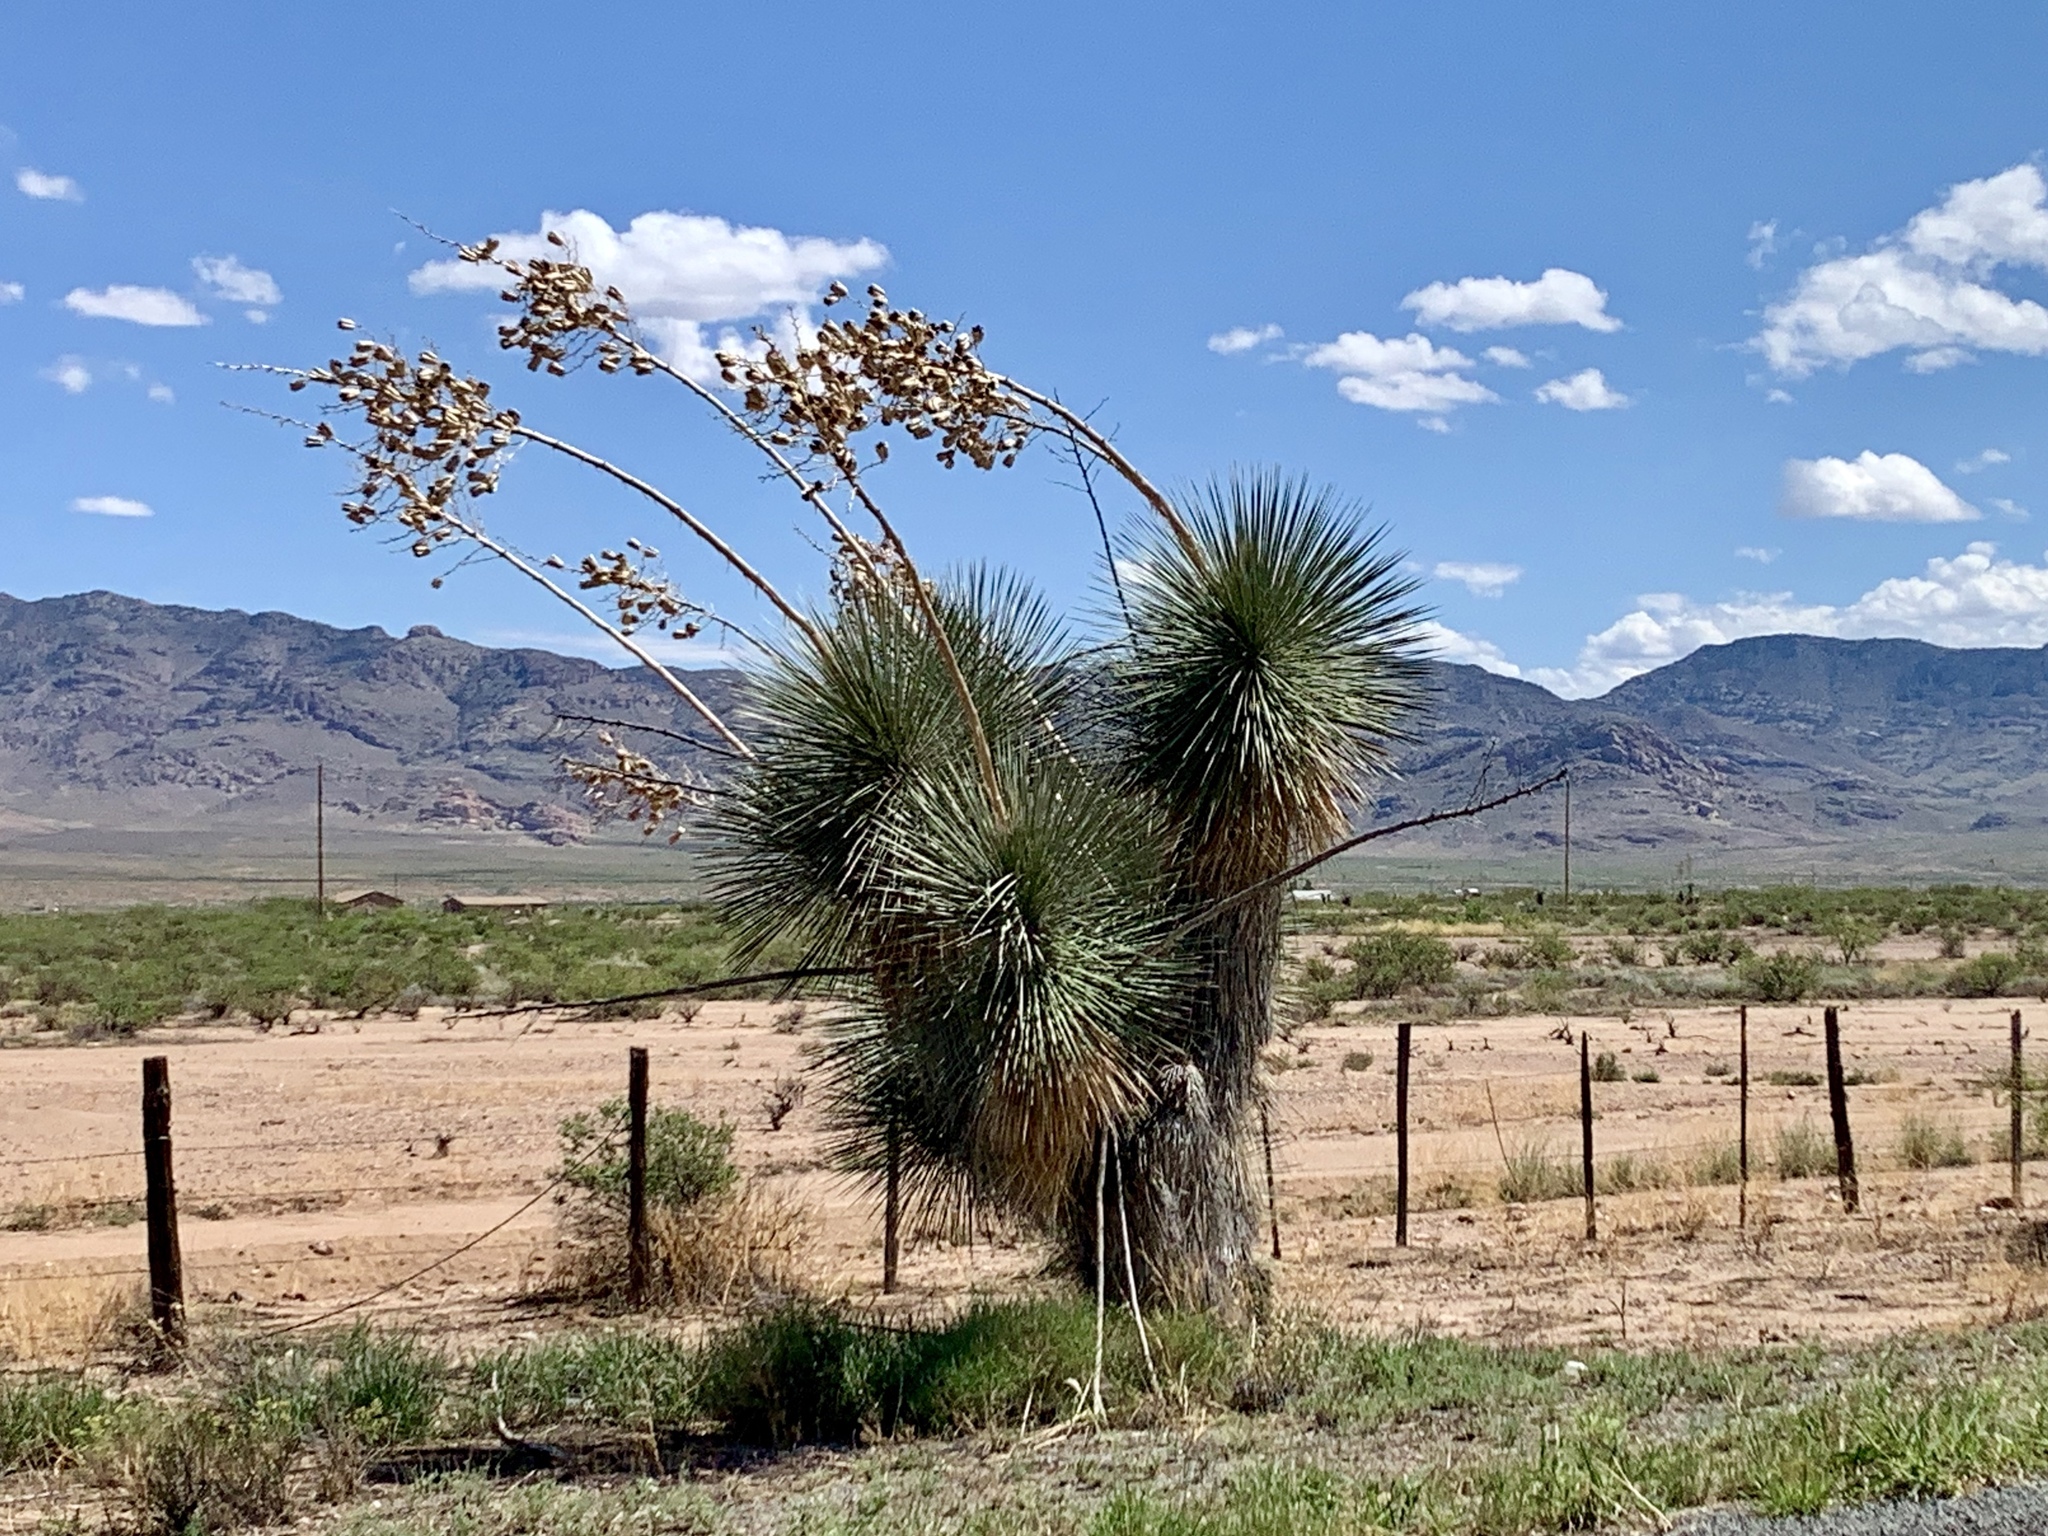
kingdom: Plantae
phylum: Tracheophyta
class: Liliopsida
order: Asparagales
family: Asparagaceae
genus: Yucca
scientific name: Yucca elata
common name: Palmella
